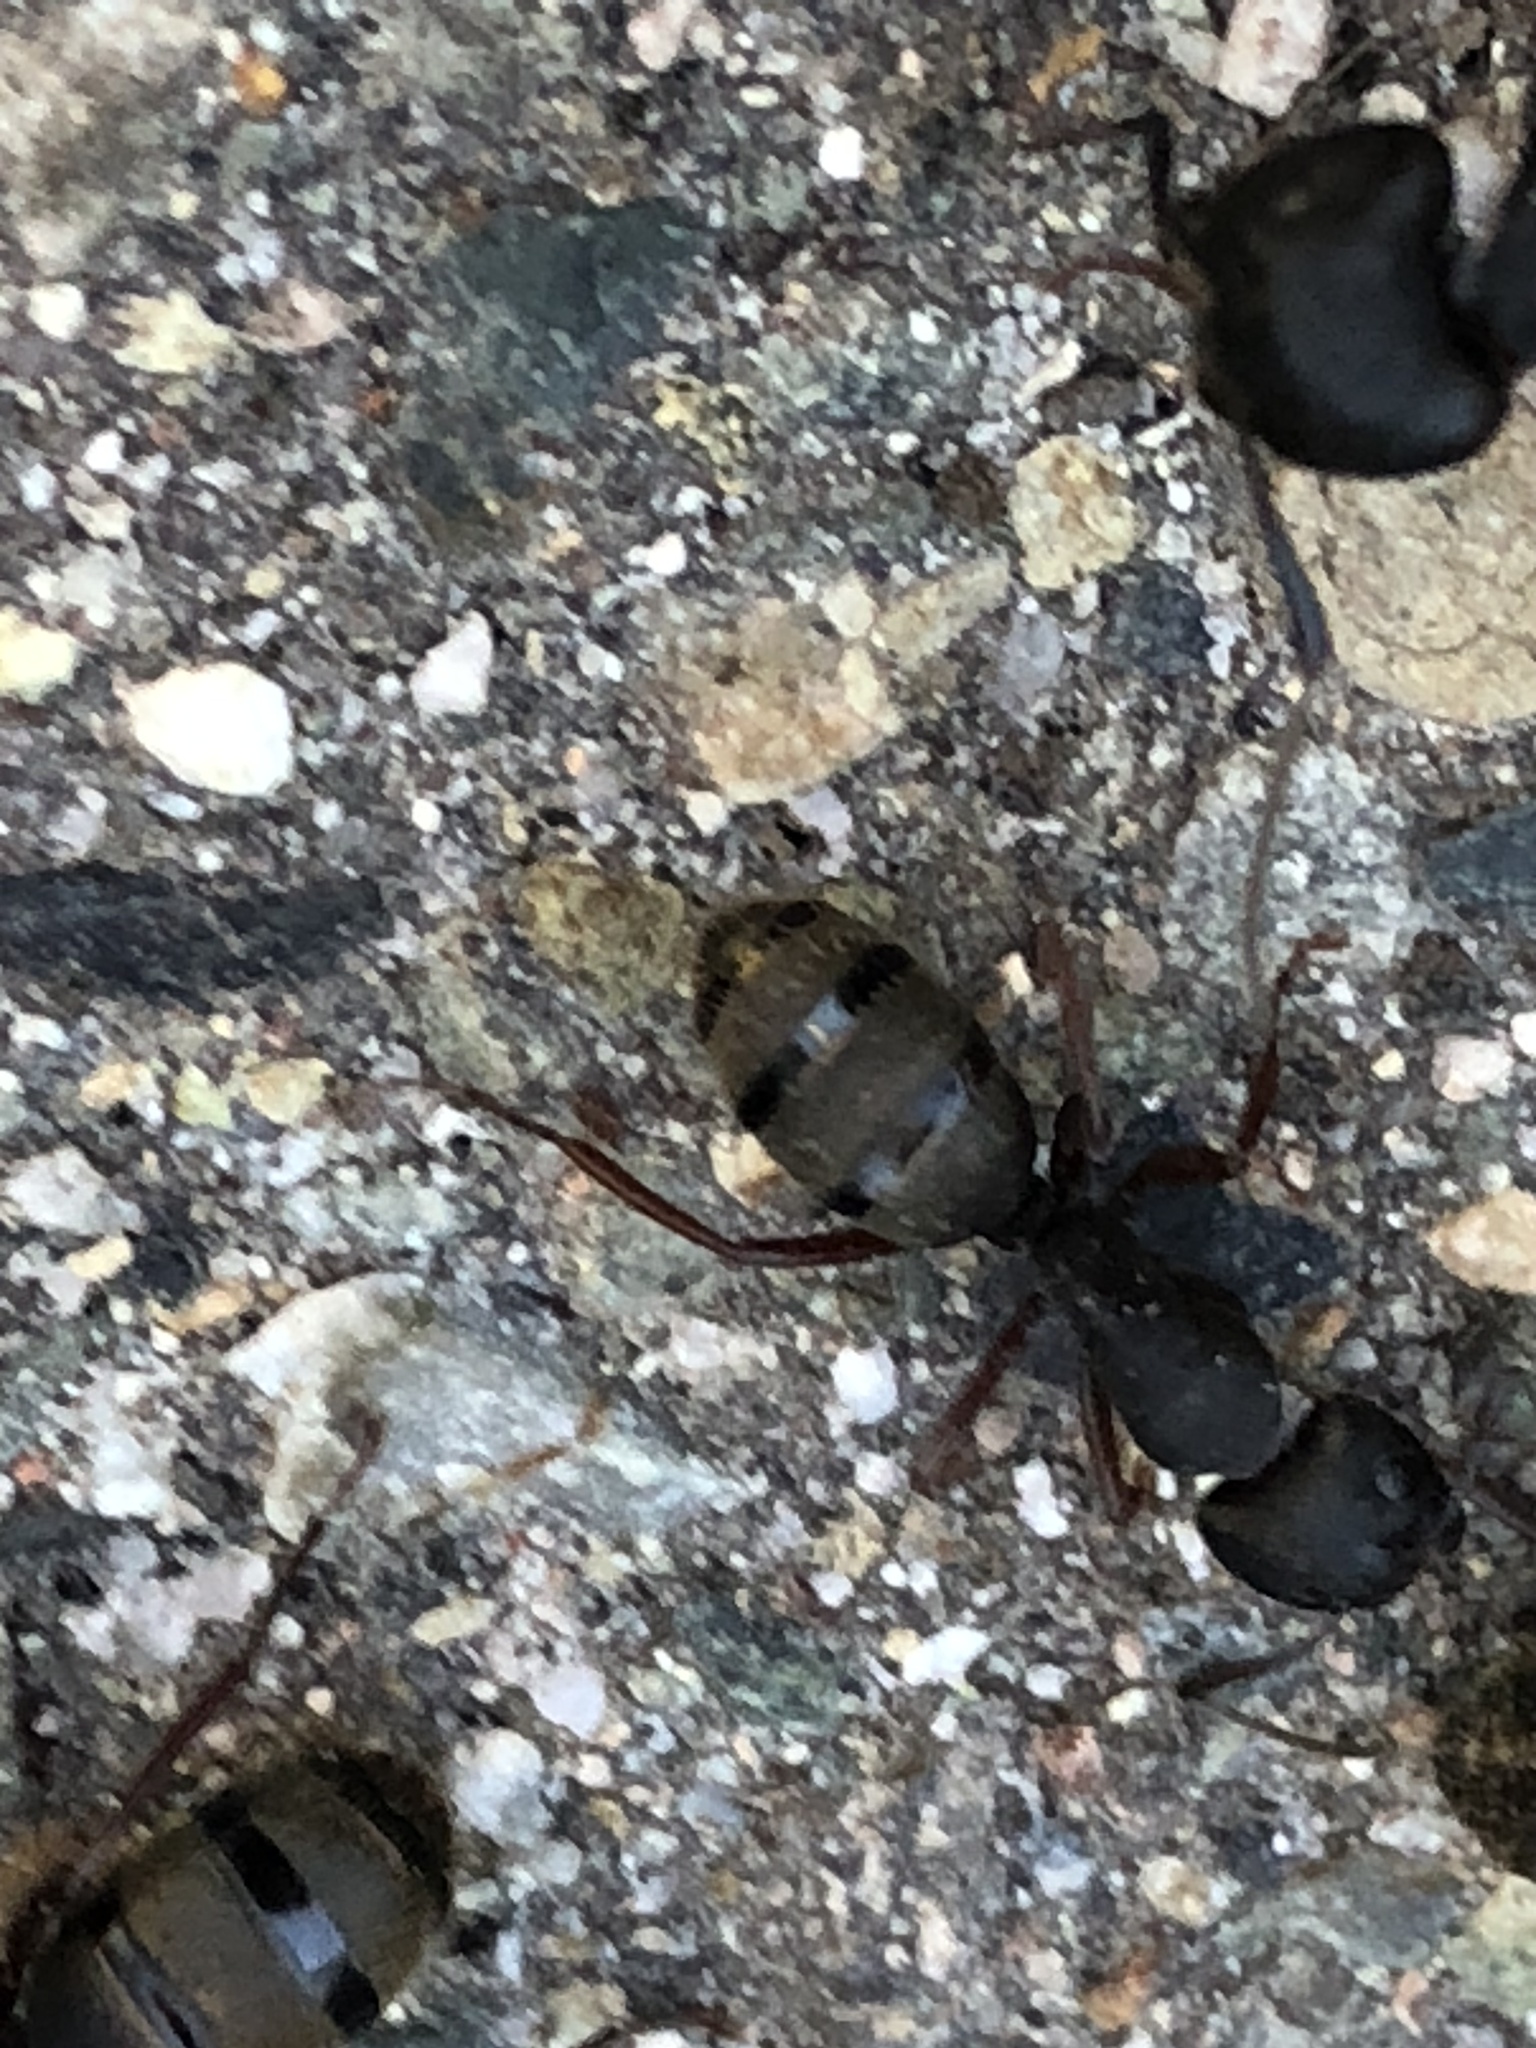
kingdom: Animalia
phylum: Arthropoda
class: Insecta
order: Hymenoptera
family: Formicidae
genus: Camponotus
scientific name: Camponotus modoc
